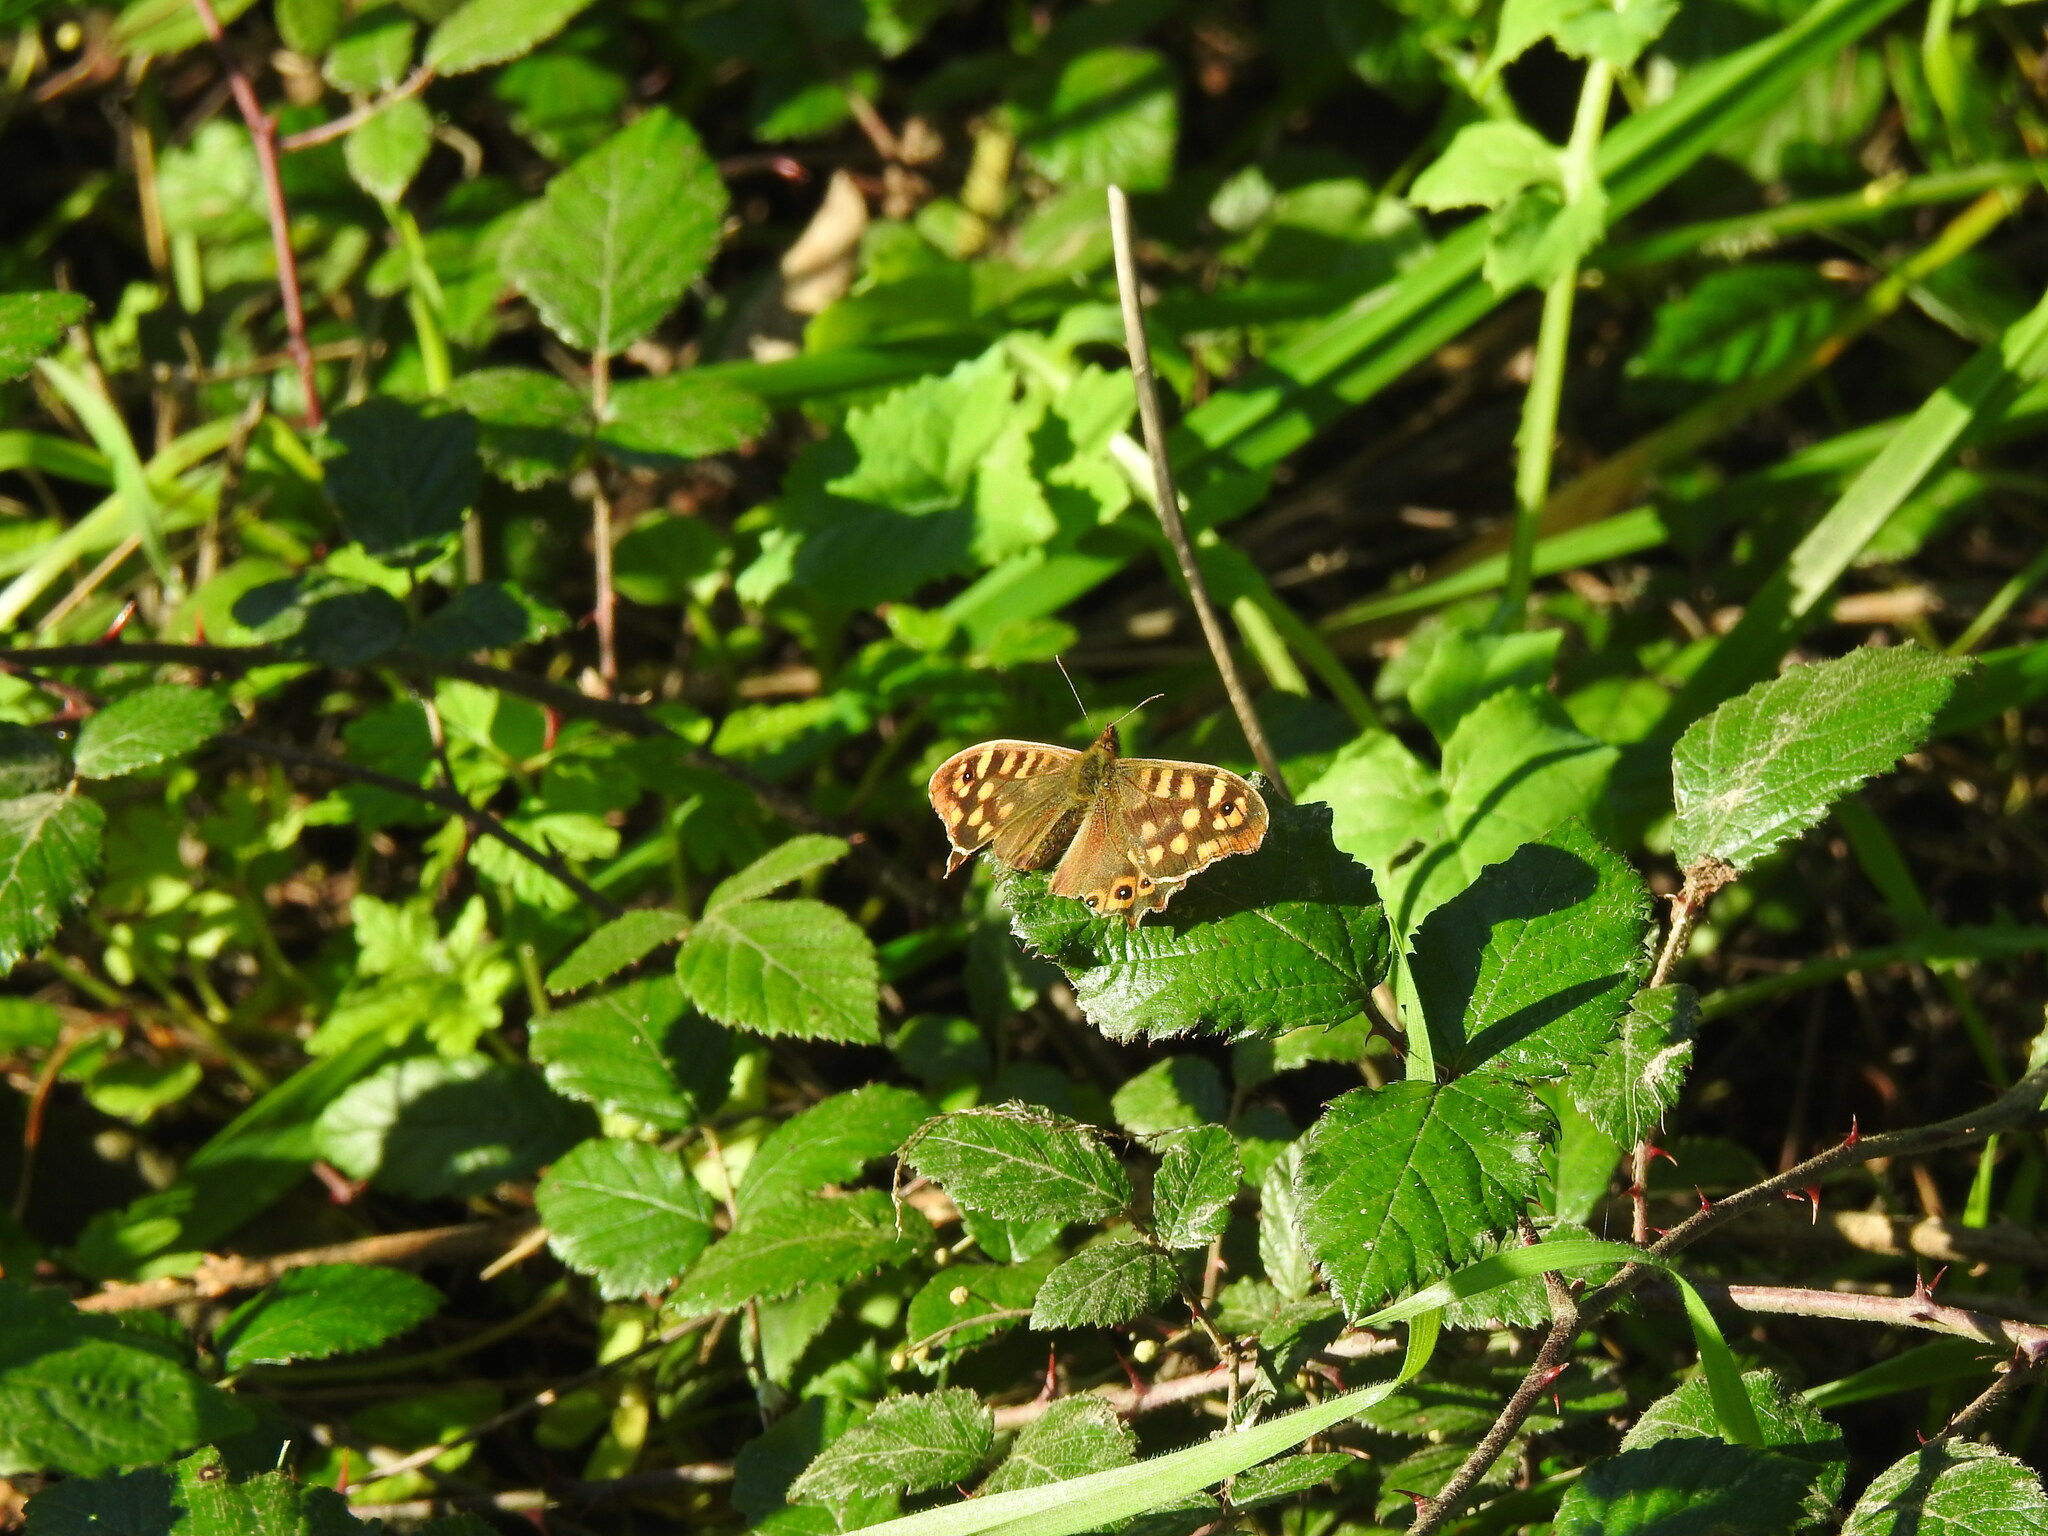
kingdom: Animalia
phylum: Arthropoda
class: Insecta
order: Lepidoptera
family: Nymphalidae
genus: Pararge
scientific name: Pararge aegeria
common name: Speckled wood
